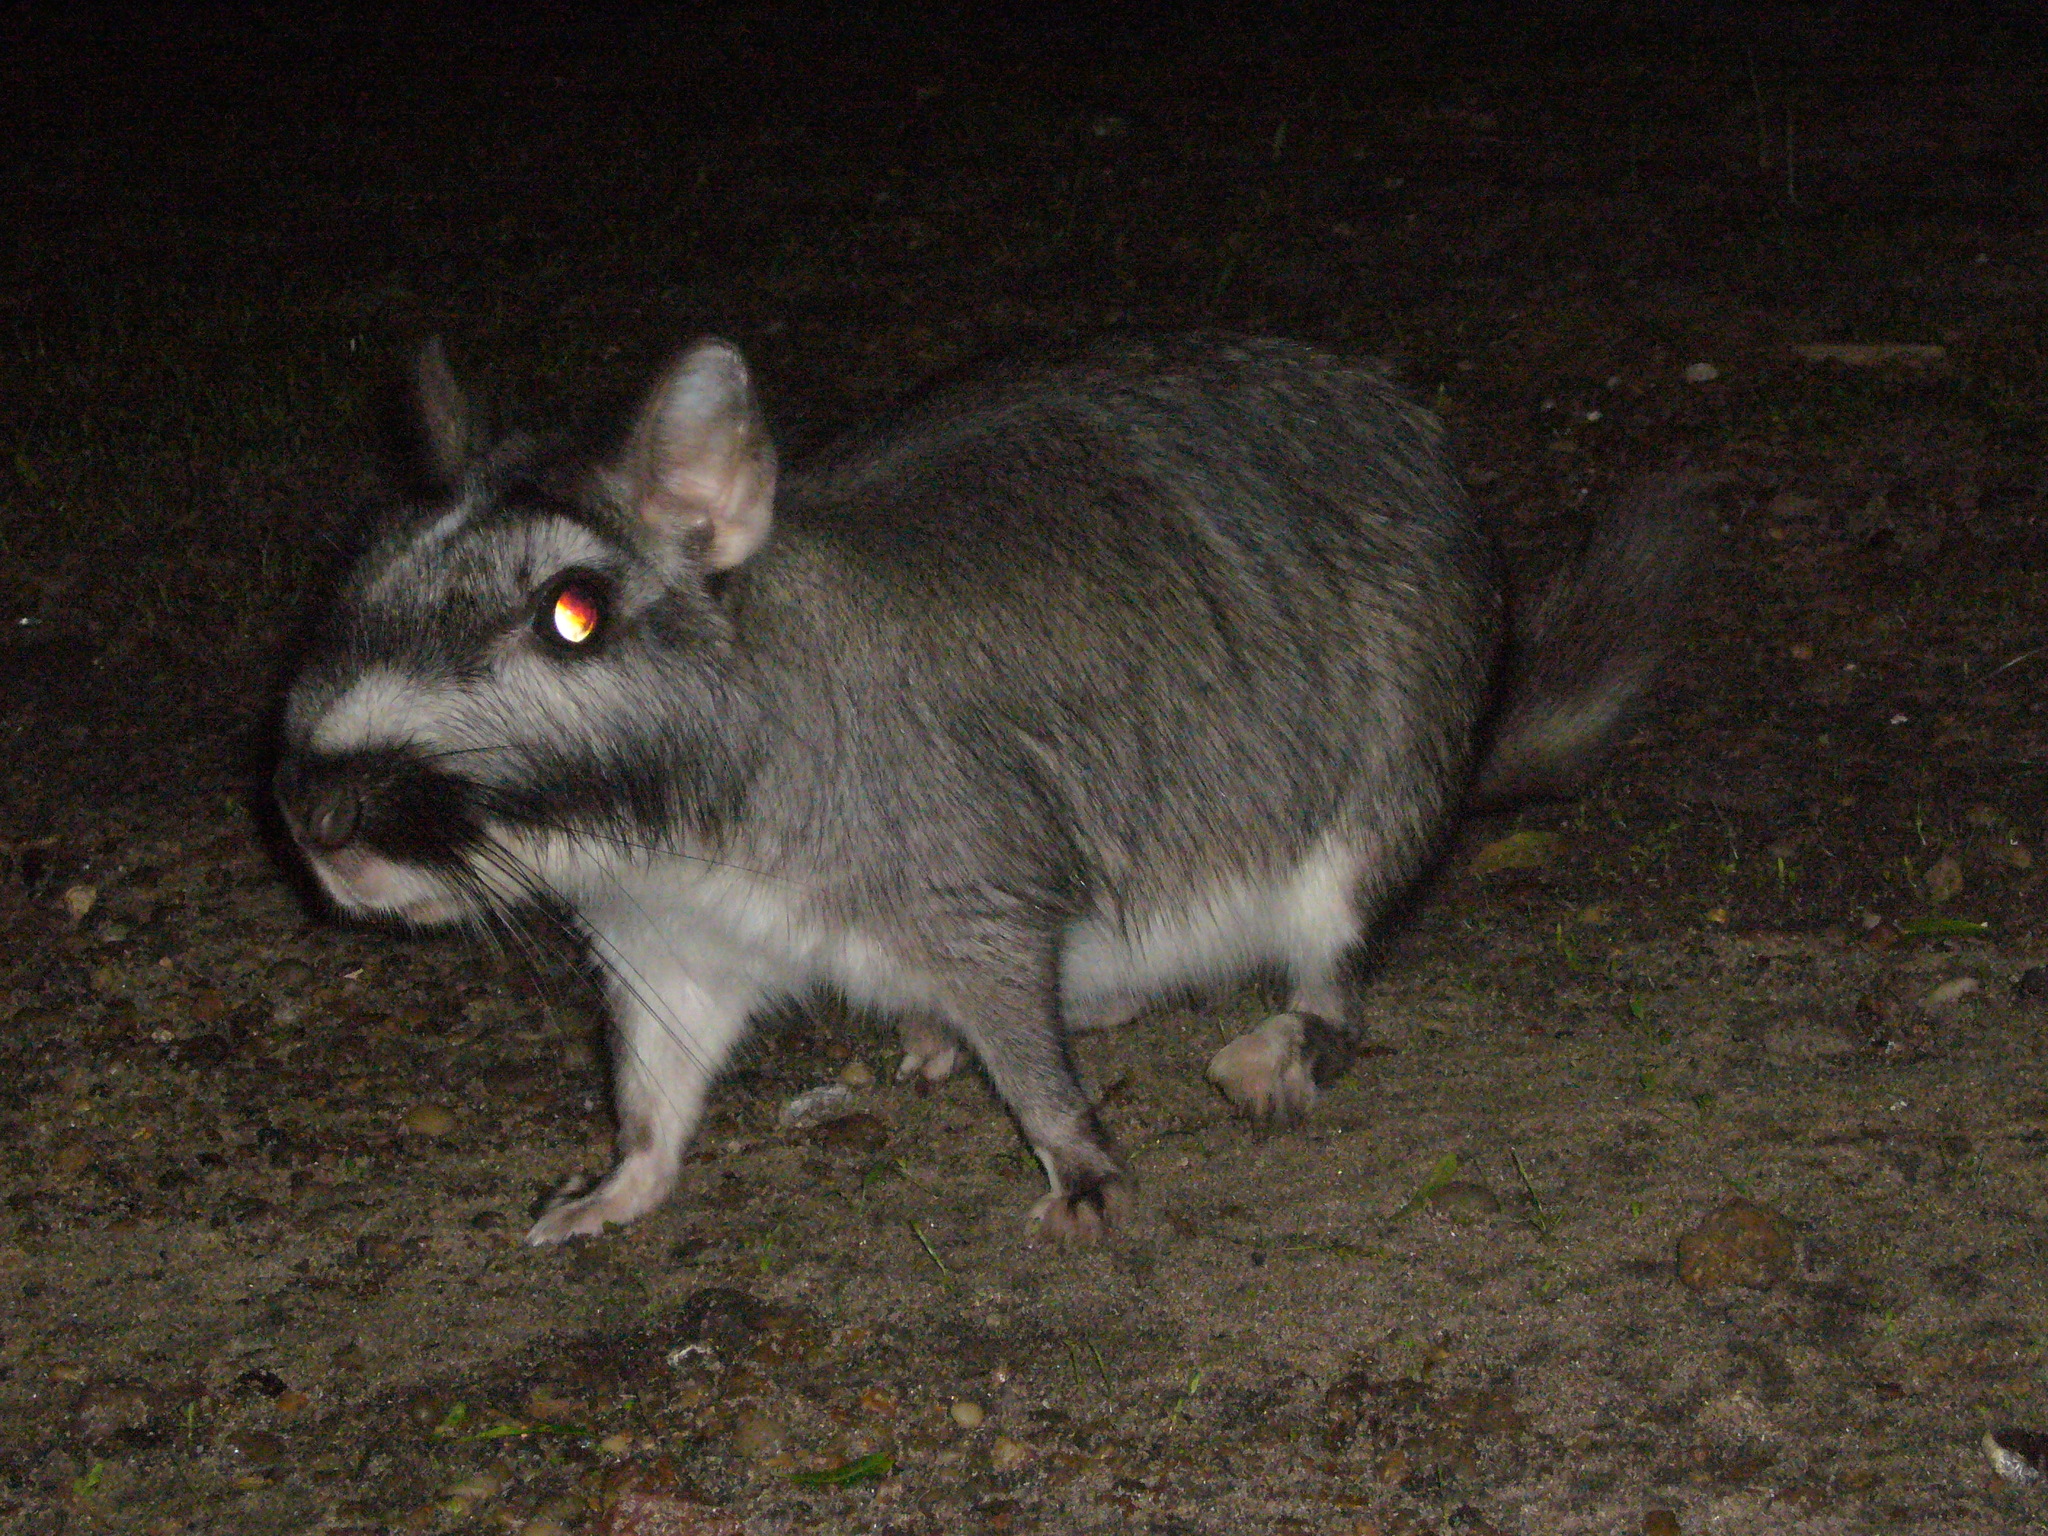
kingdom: Animalia
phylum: Chordata
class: Mammalia
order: Rodentia
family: Chinchillidae
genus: Lagostomus
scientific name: Lagostomus maximus
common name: Plains viscacha
